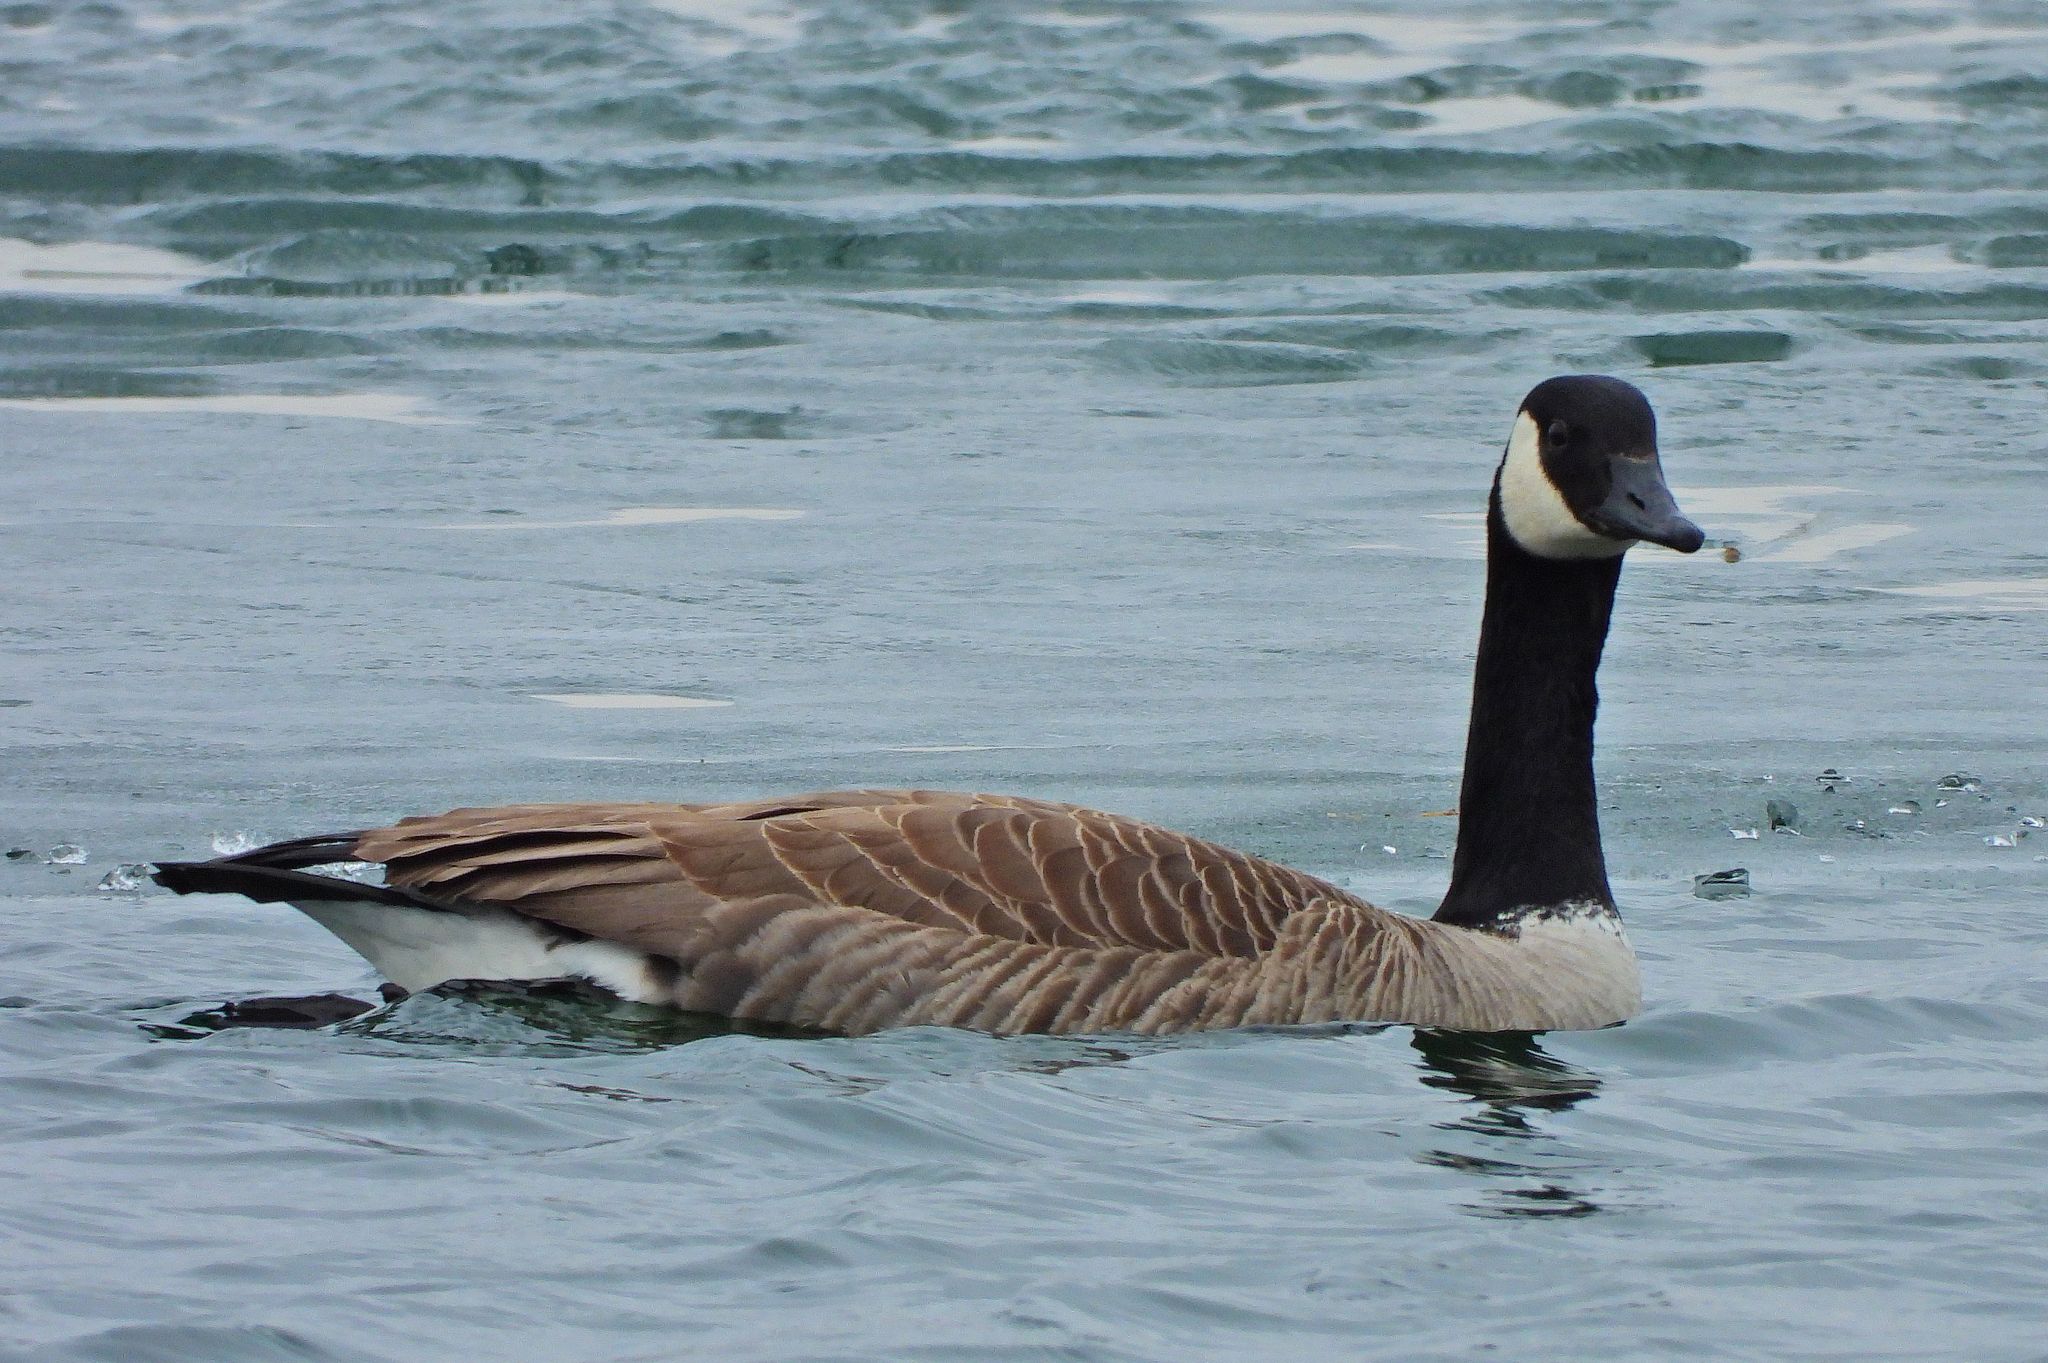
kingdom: Animalia
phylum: Chordata
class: Aves
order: Anseriformes
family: Anatidae
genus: Branta
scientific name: Branta canadensis
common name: Canada goose
